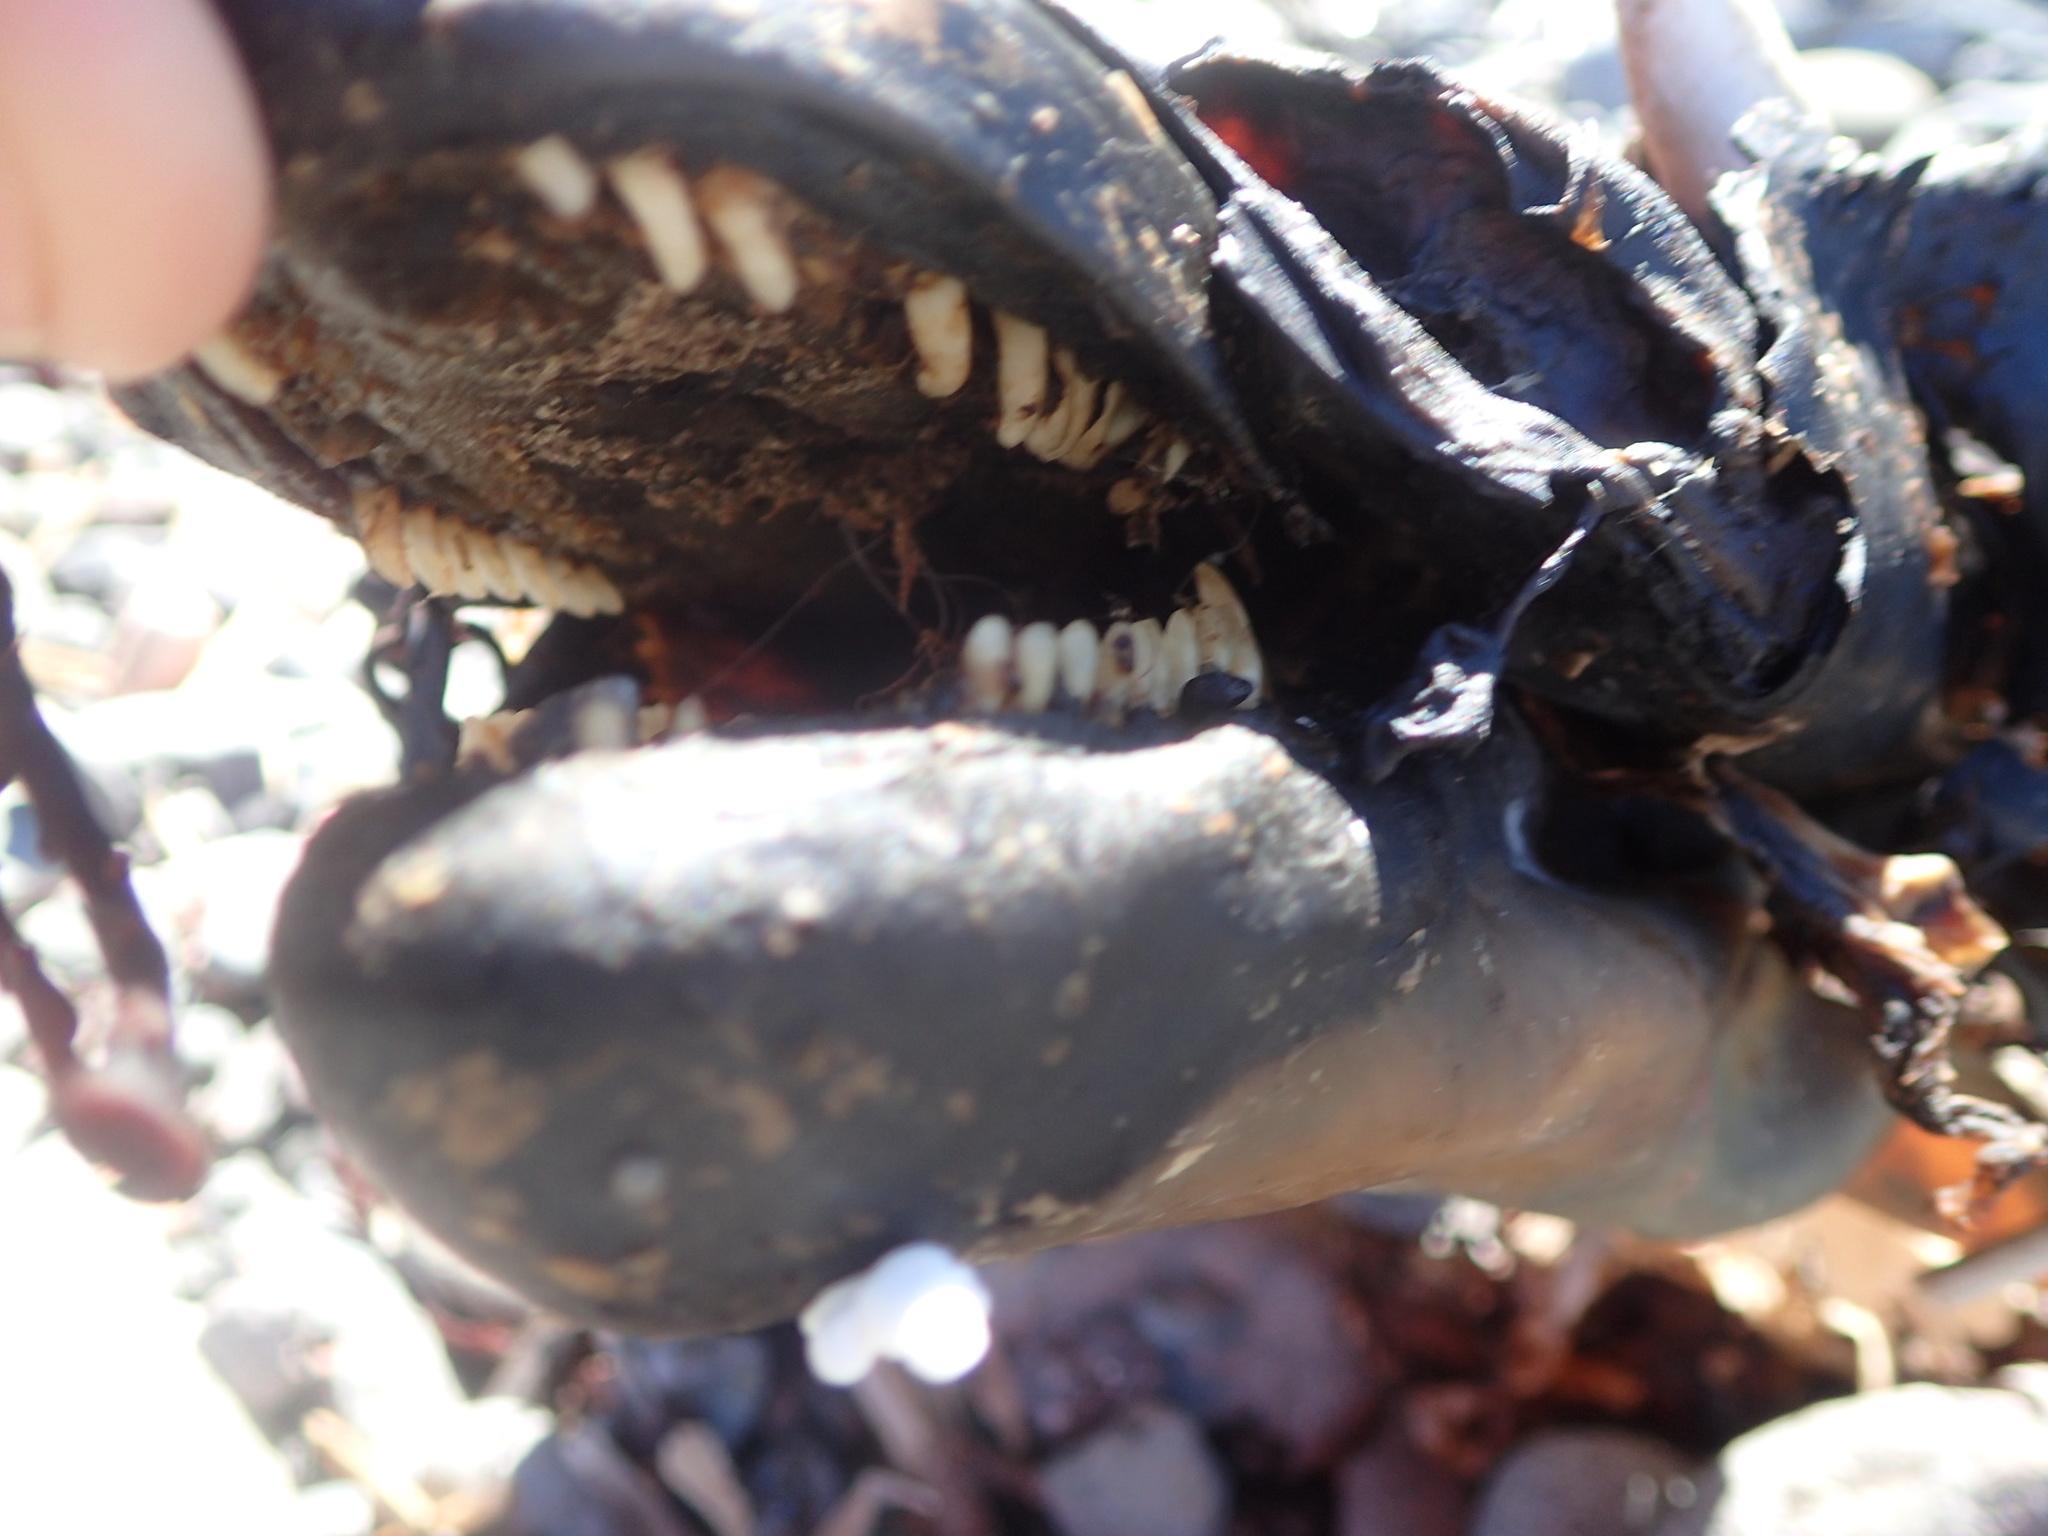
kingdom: Animalia
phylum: Chordata
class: Mammalia
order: Cetacea
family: Phocoenidae
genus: Phocoena
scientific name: Phocoena phocoena
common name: Harbor porpoise
